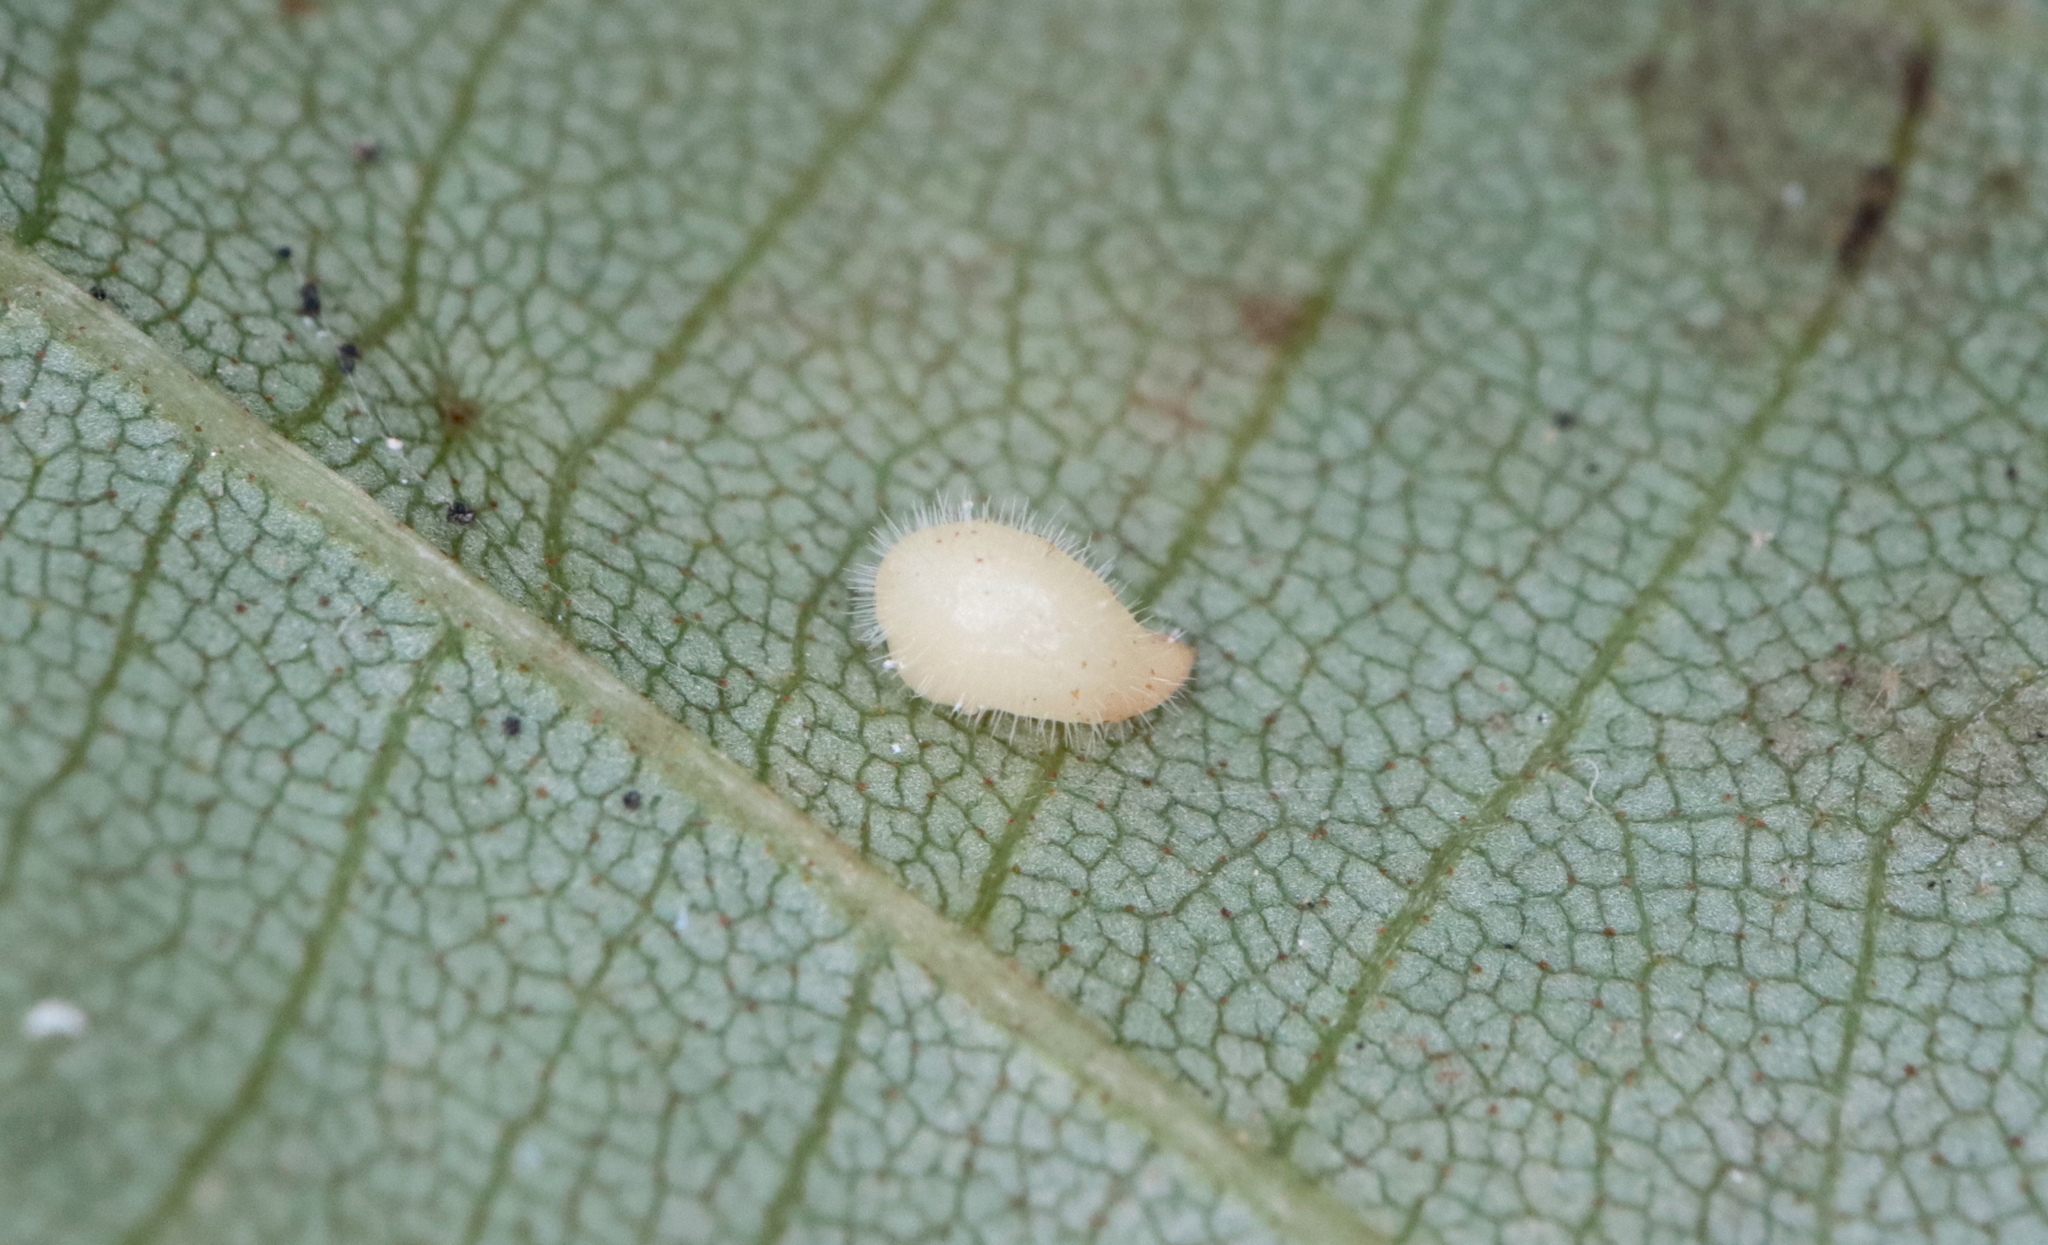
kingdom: Animalia
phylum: Arthropoda
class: Insecta
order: Diptera
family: Cecidomyiidae
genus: Caryomyia
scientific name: Caryomyia eumaris
